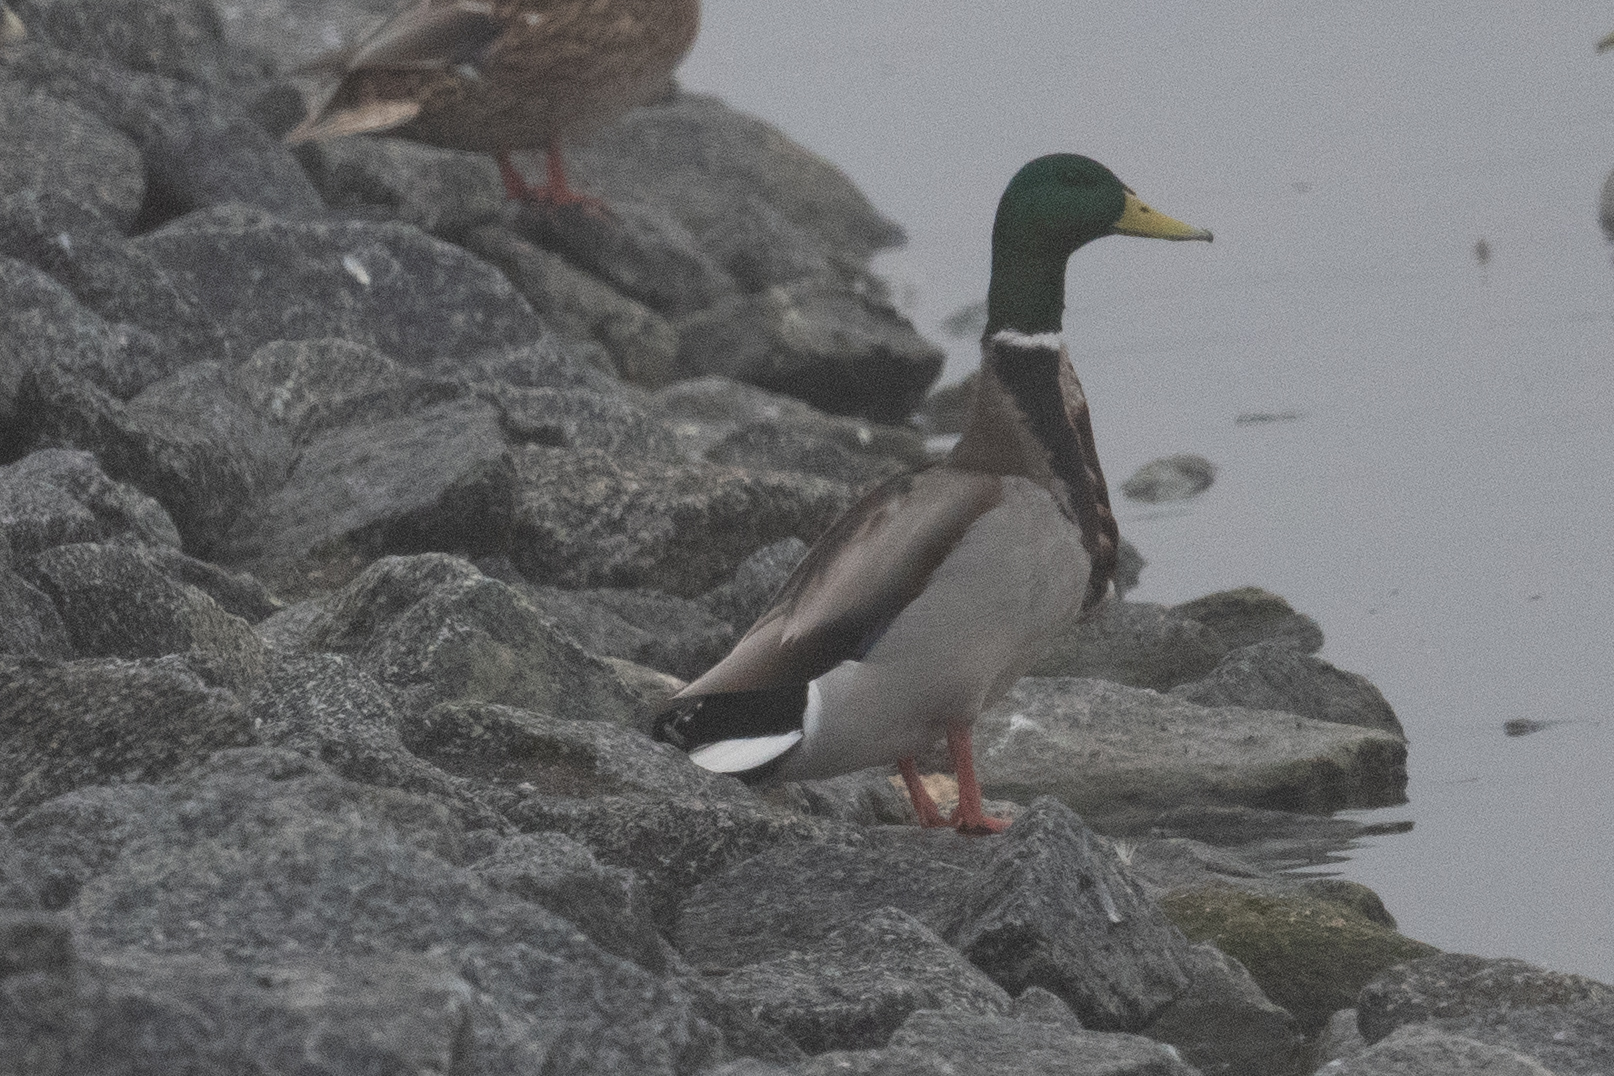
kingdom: Animalia
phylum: Chordata
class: Aves
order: Anseriformes
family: Anatidae
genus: Anas
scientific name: Anas platyrhynchos
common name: Mallard
